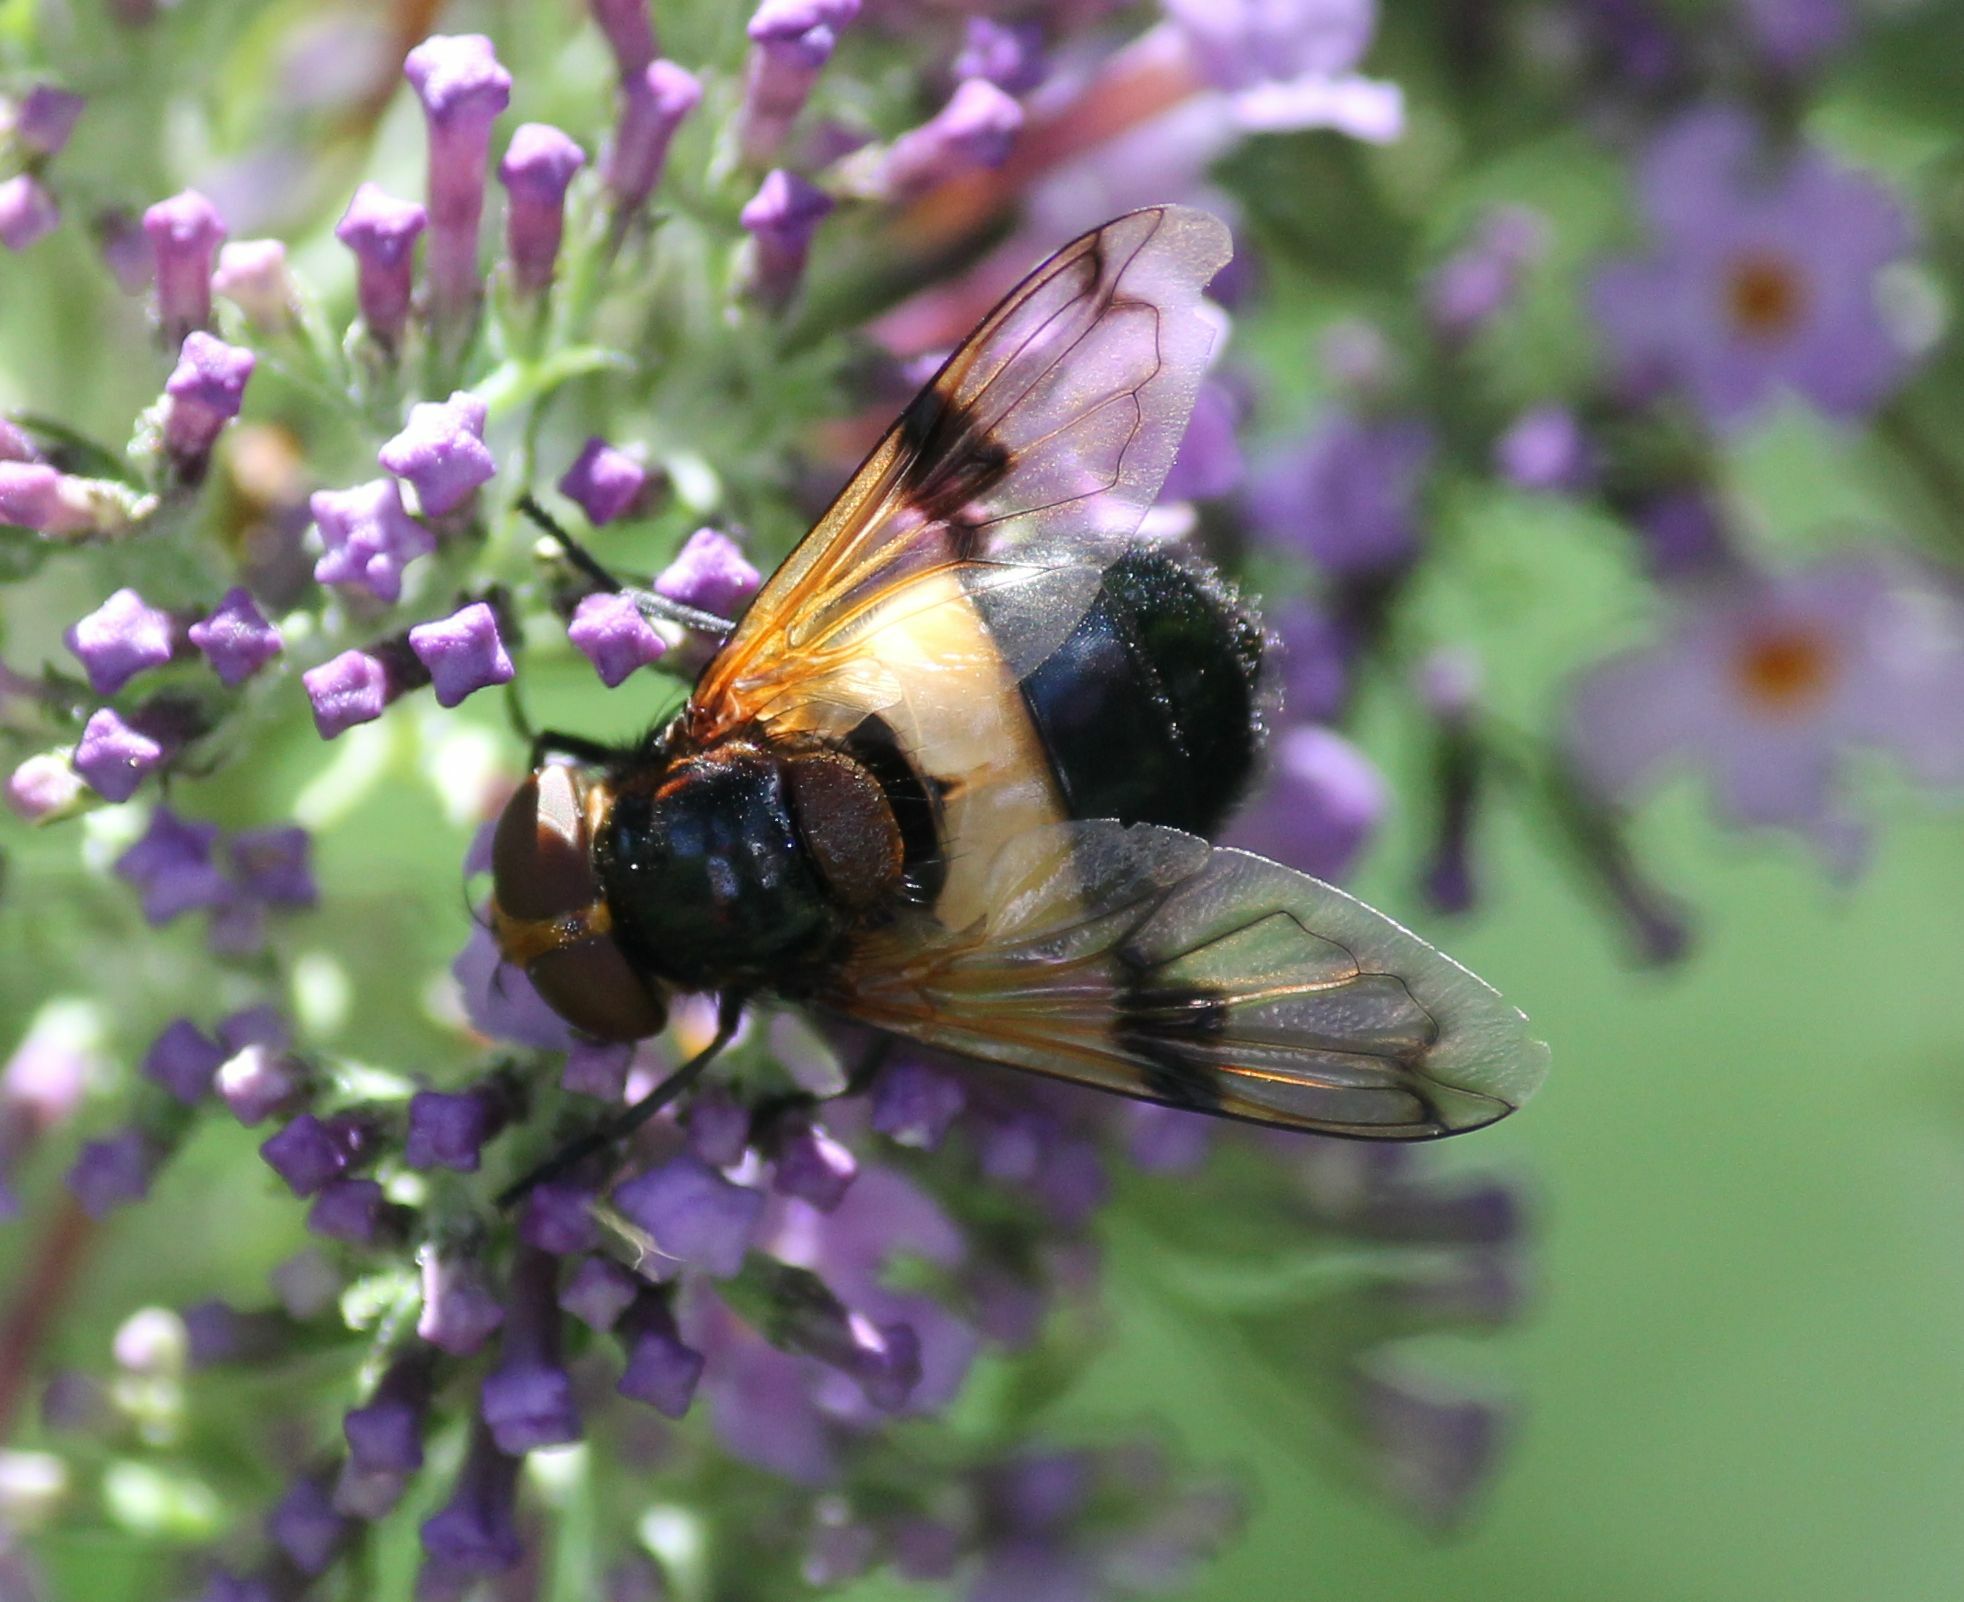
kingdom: Animalia
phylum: Arthropoda
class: Insecta
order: Diptera
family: Syrphidae
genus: Volucella
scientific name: Volucella pellucens
